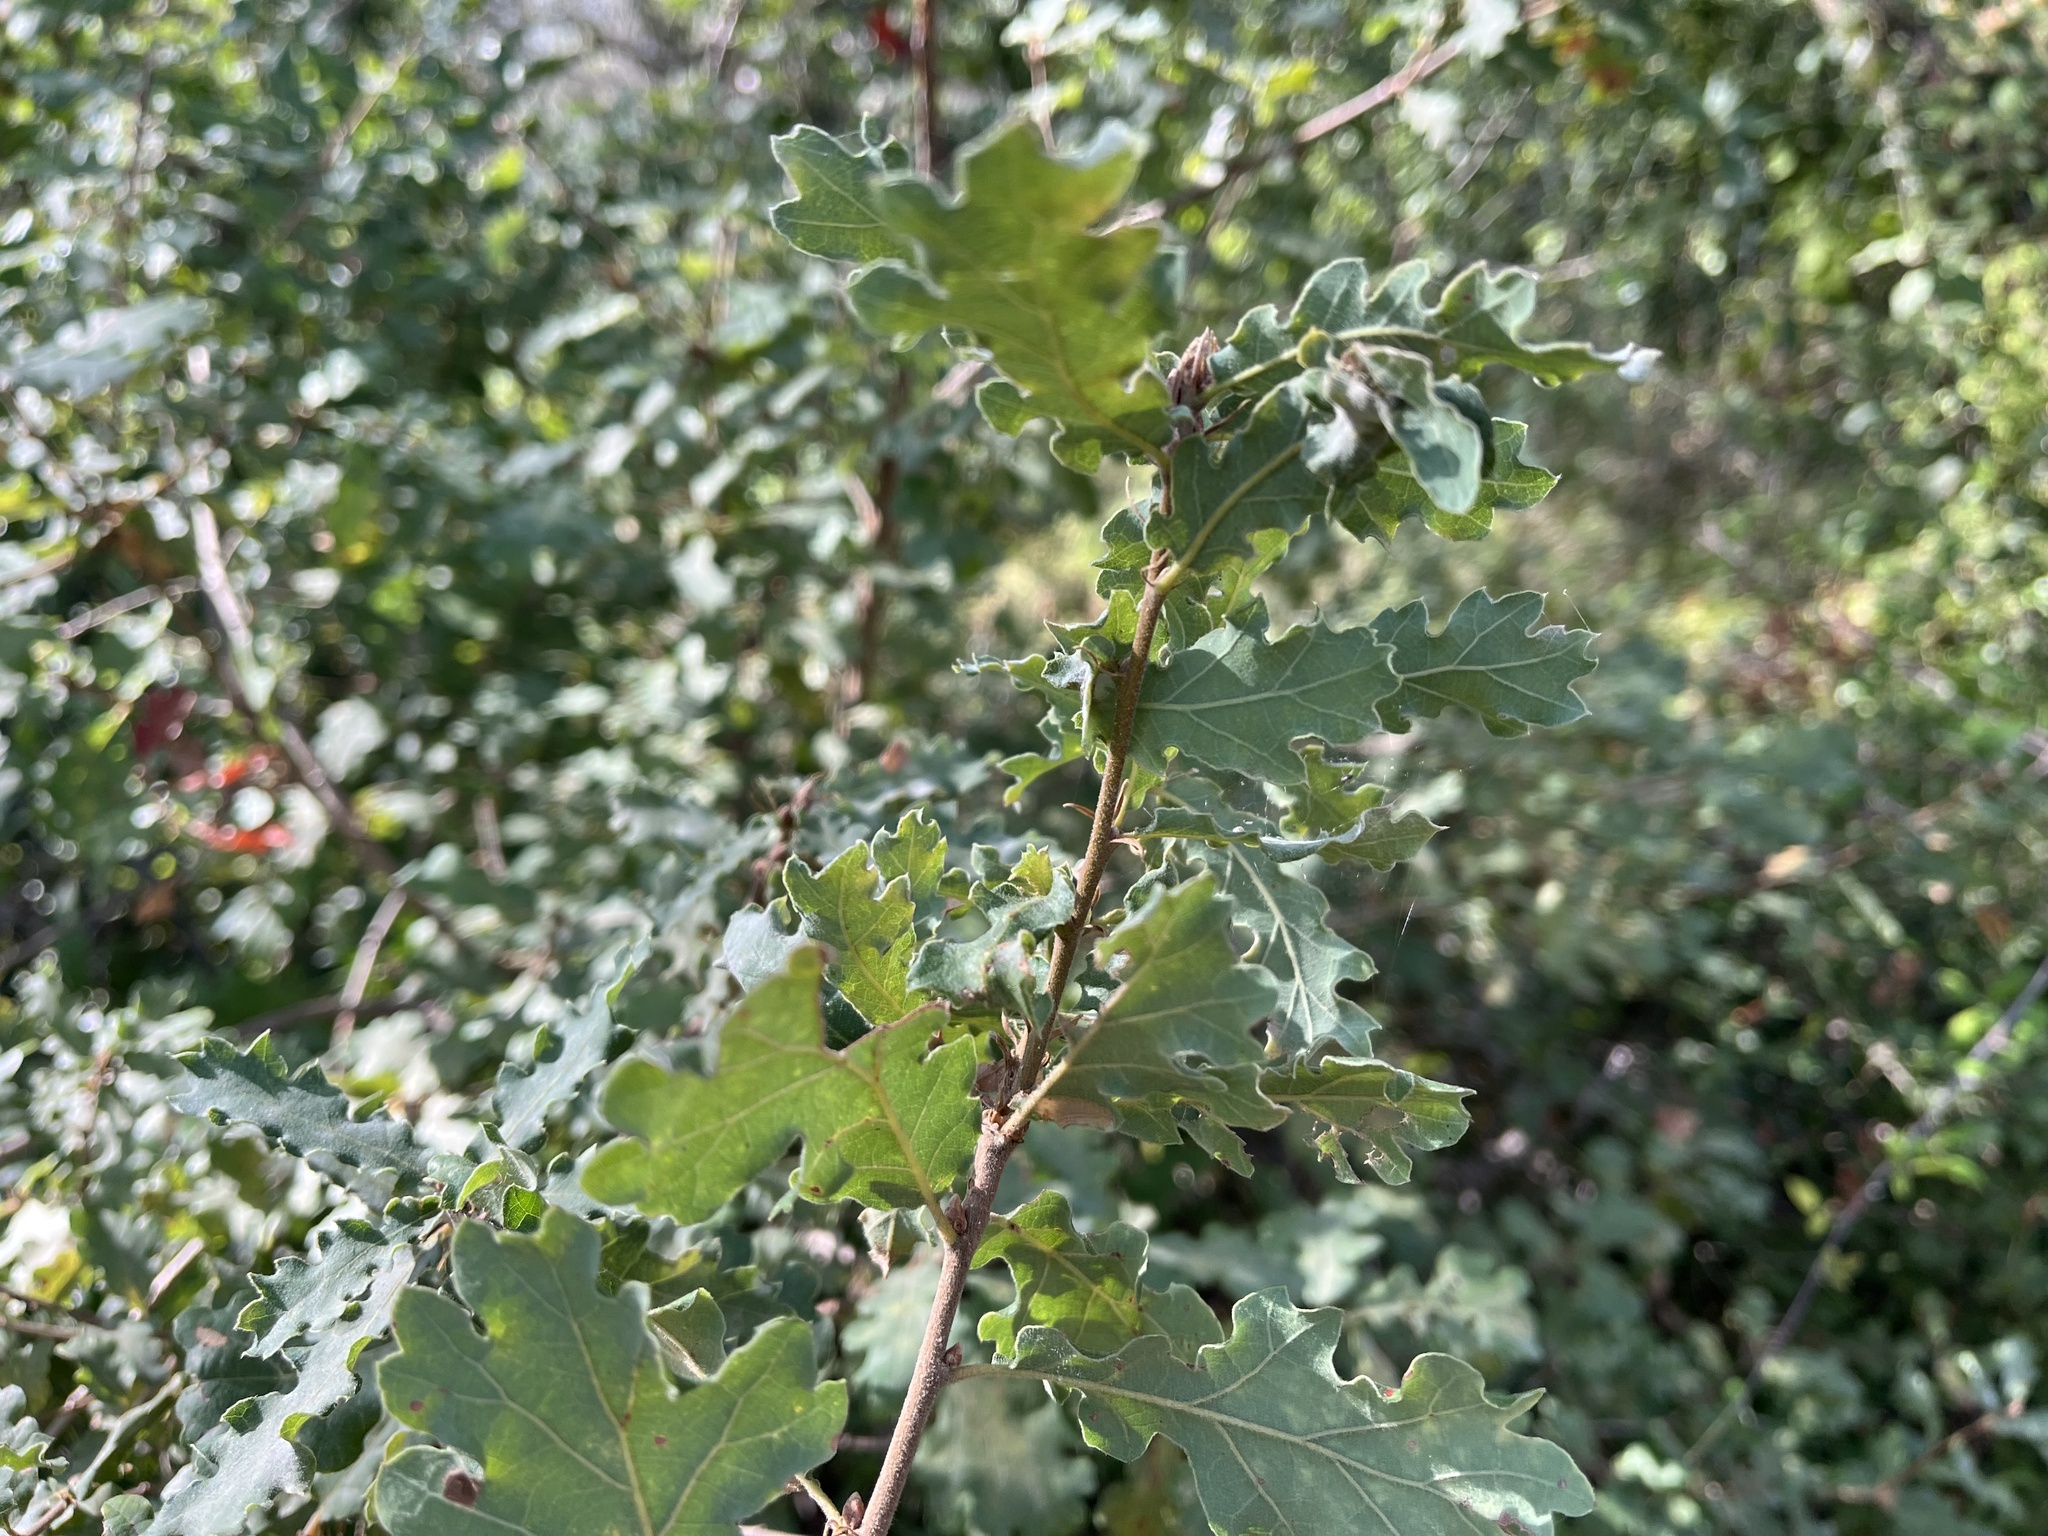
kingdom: Plantae
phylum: Tracheophyta
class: Magnoliopsida
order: Fagales
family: Fagaceae
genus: Quercus
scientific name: Quercus pubescens
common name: Downy oak
